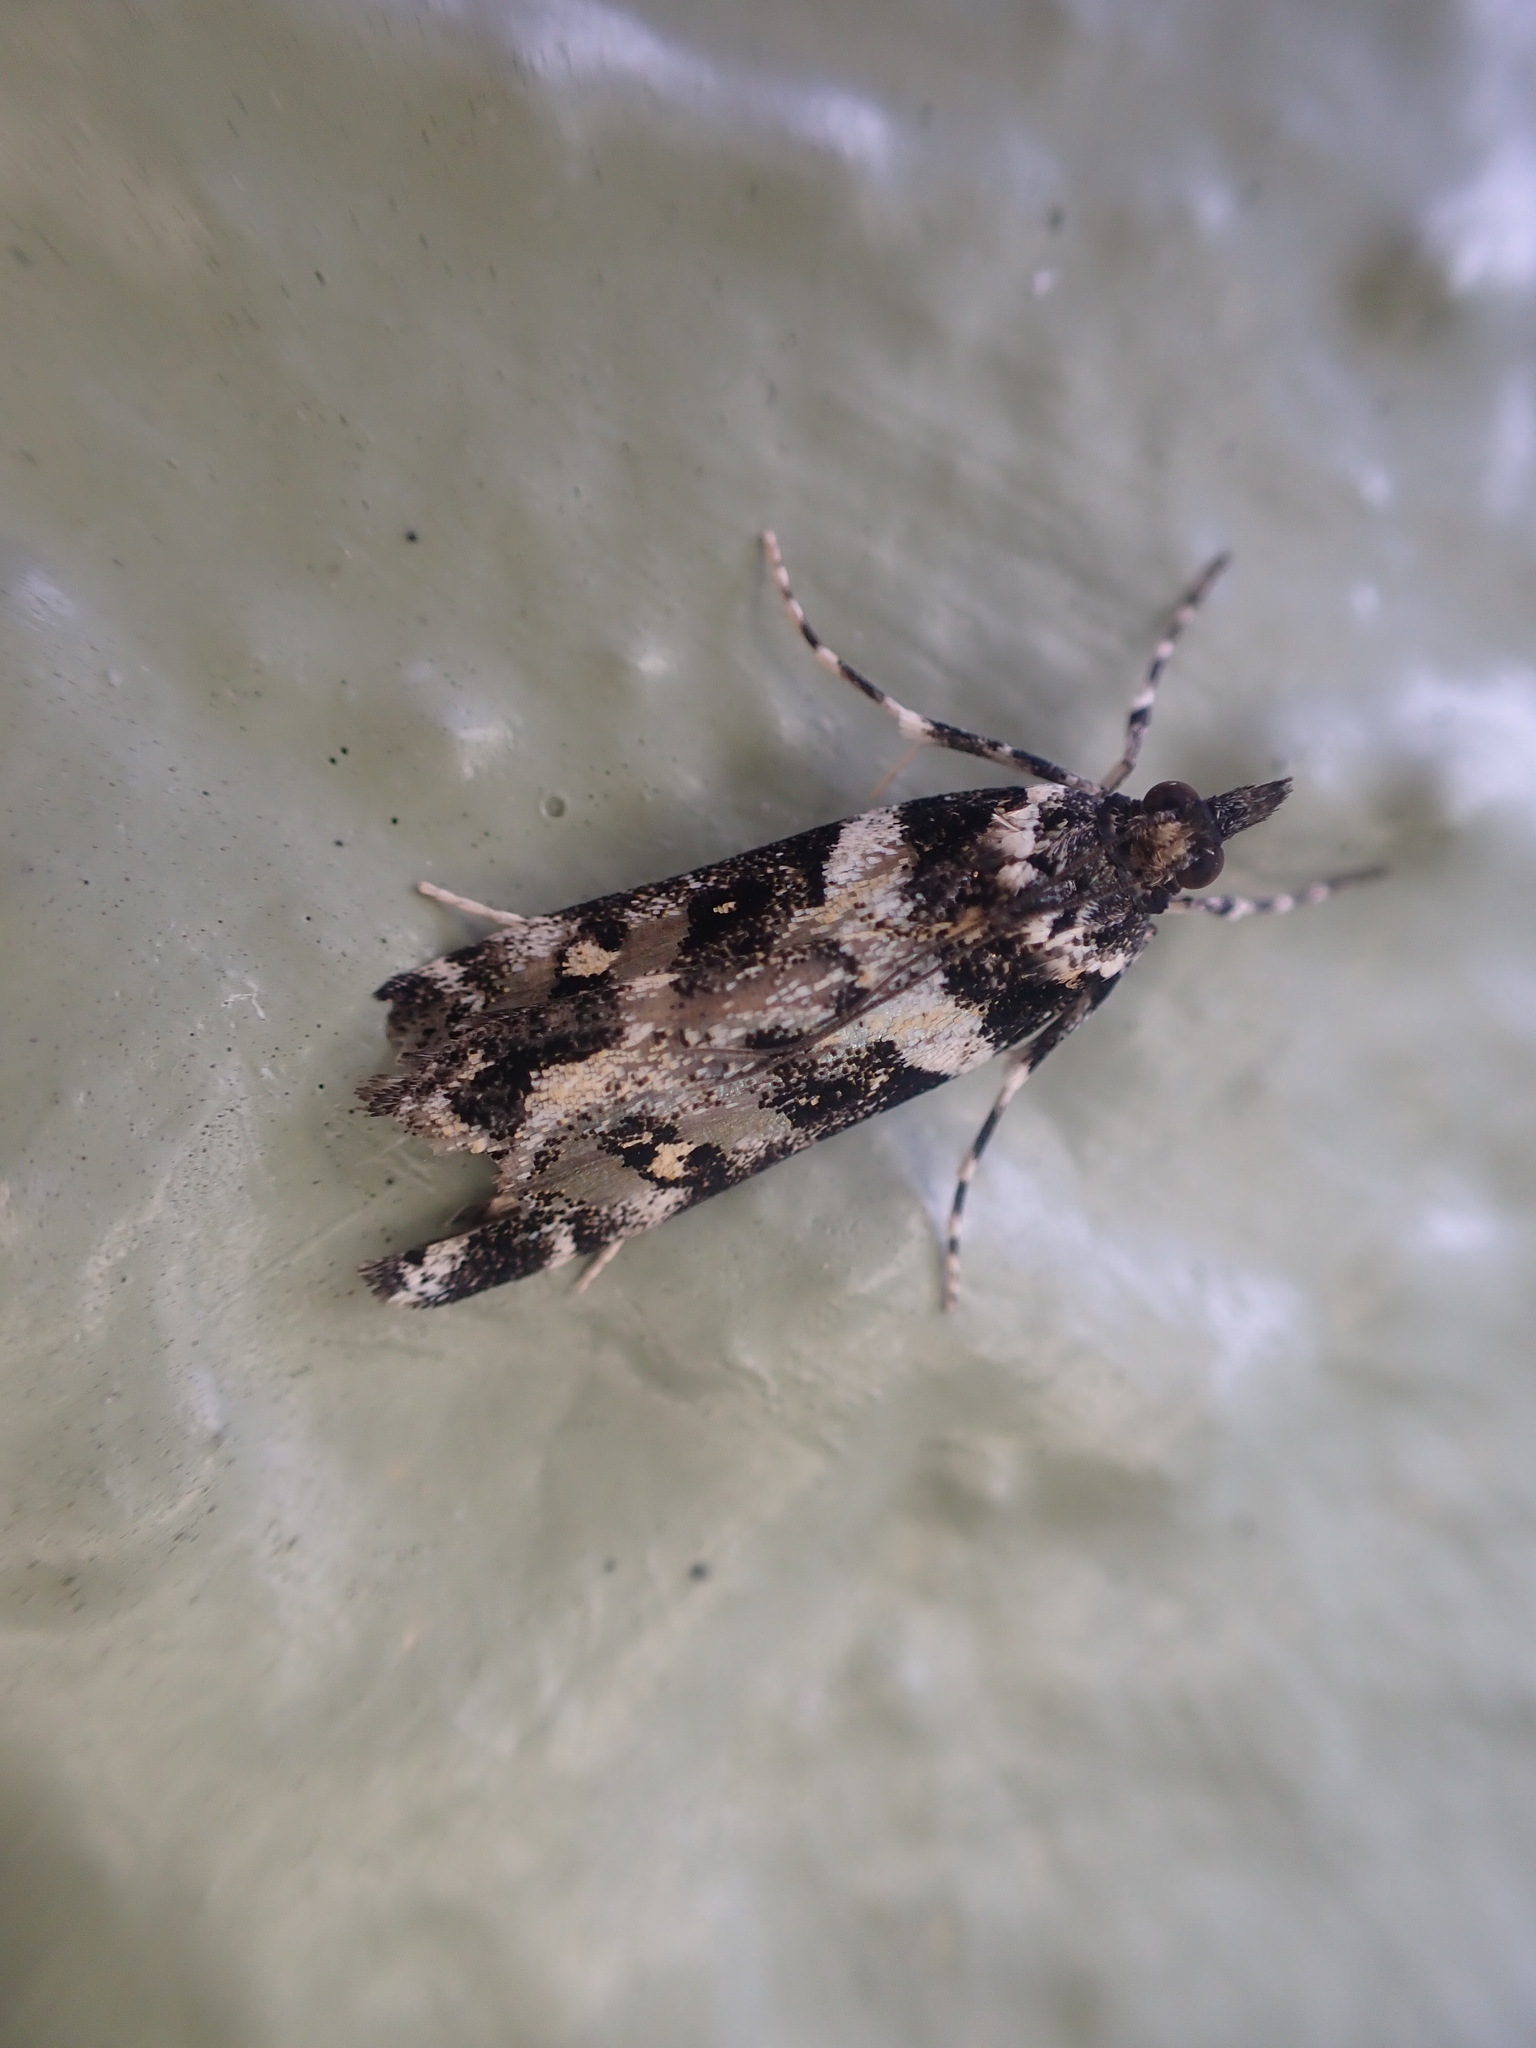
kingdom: Animalia
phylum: Arthropoda
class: Insecta
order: Lepidoptera
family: Crambidae
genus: Eudonia
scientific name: Eudonia diphtheralis
